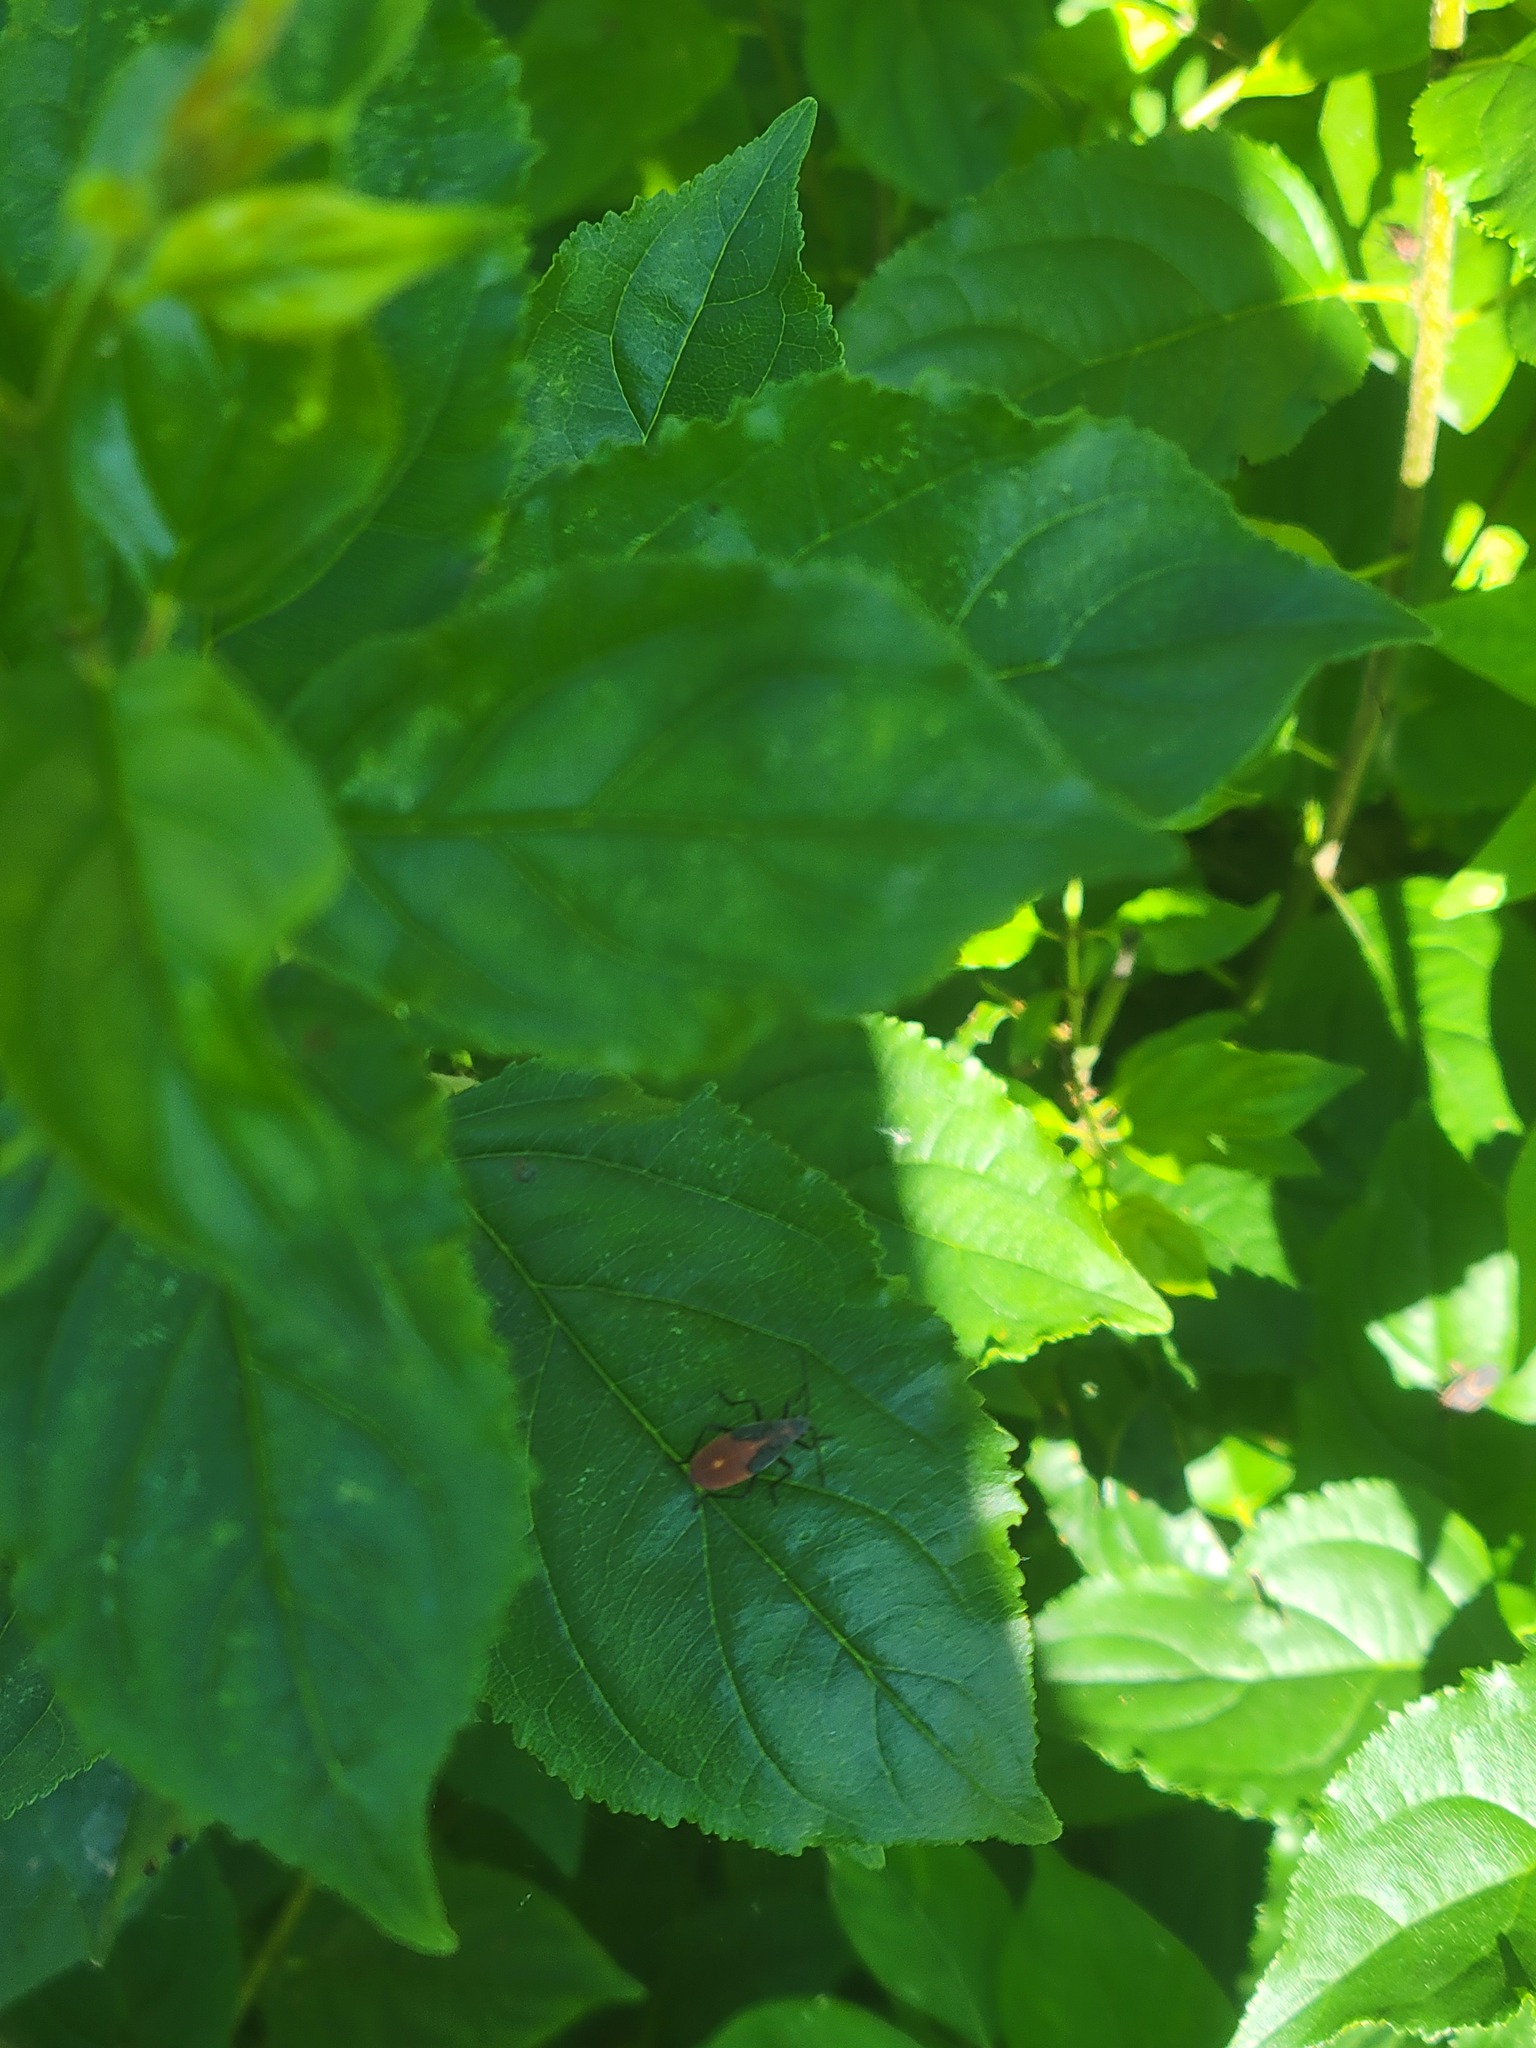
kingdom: Animalia
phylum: Arthropoda
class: Insecta
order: Hemiptera
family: Rhopalidae
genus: Boisea
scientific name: Boisea trivittata
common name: Boxelder bug
